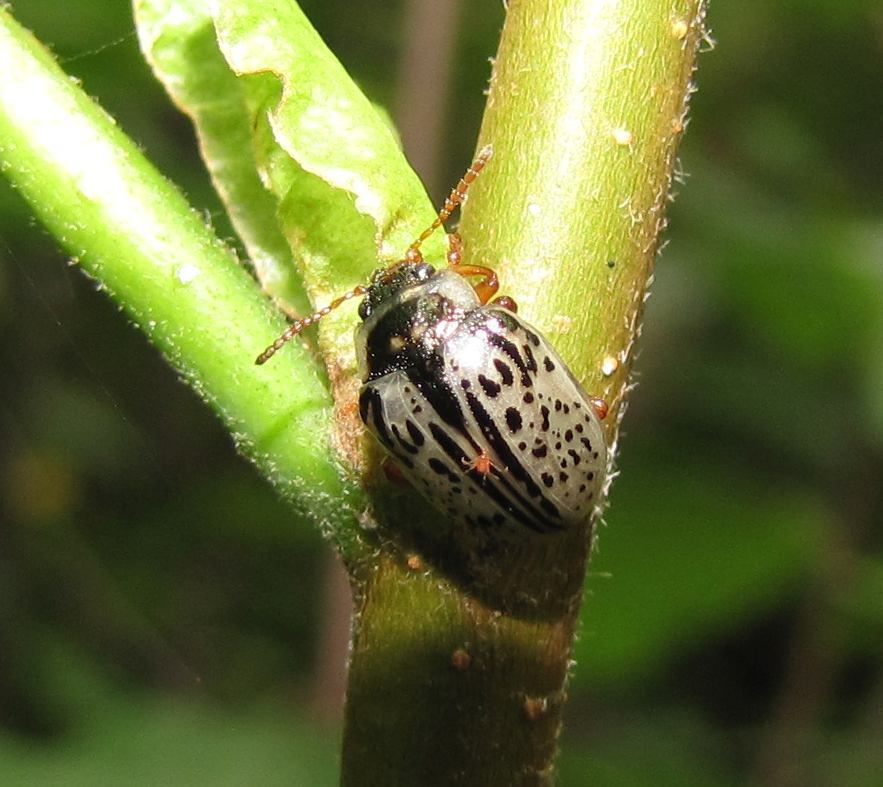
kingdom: Animalia
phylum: Arthropoda
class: Insecta
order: Coleoptera
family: Chrysomelidae
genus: Calligrapha
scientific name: Calligrapha multipunctata
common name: Common willow calligrapher beetle
